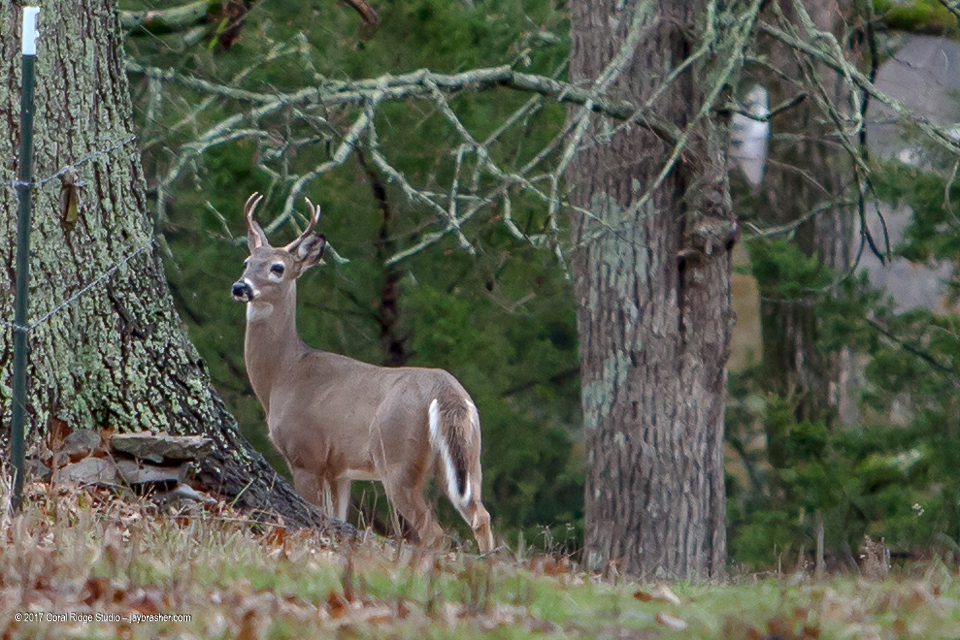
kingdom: Animalia
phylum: Chordata
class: Mammalia
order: Artiodactyla
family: Cervidae
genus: Odocoileus
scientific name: Odocoileus virginianus
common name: White-tailed deer
